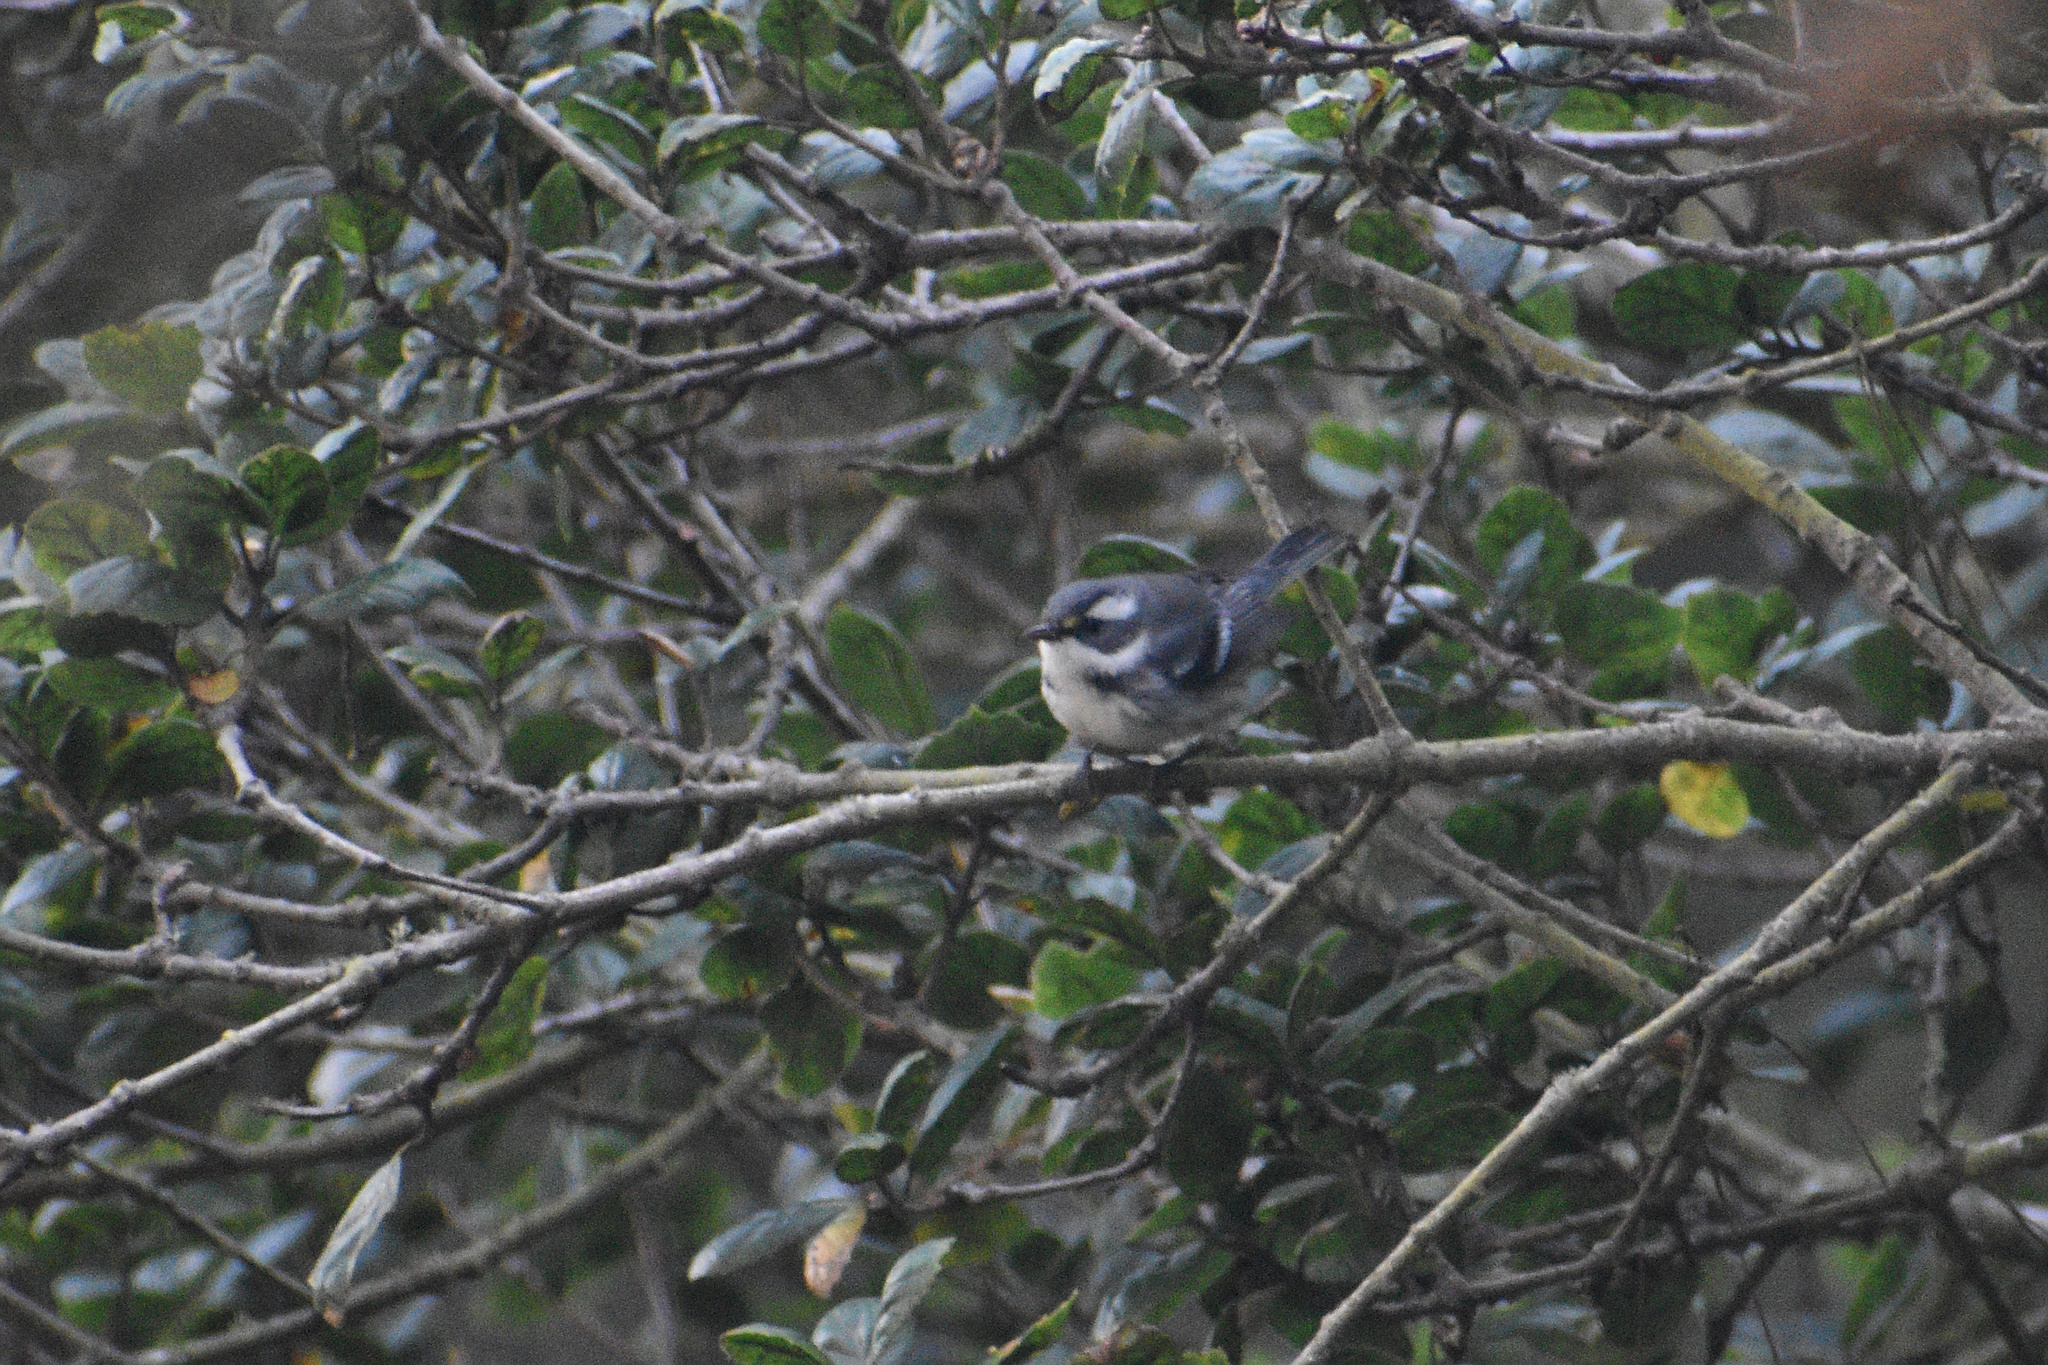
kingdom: Animalia
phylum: Chordata
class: Aves
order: Passeriformes
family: Parulidae
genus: Setophaga
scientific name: Setophaga nigrescens
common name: Black-throated gray warbler
